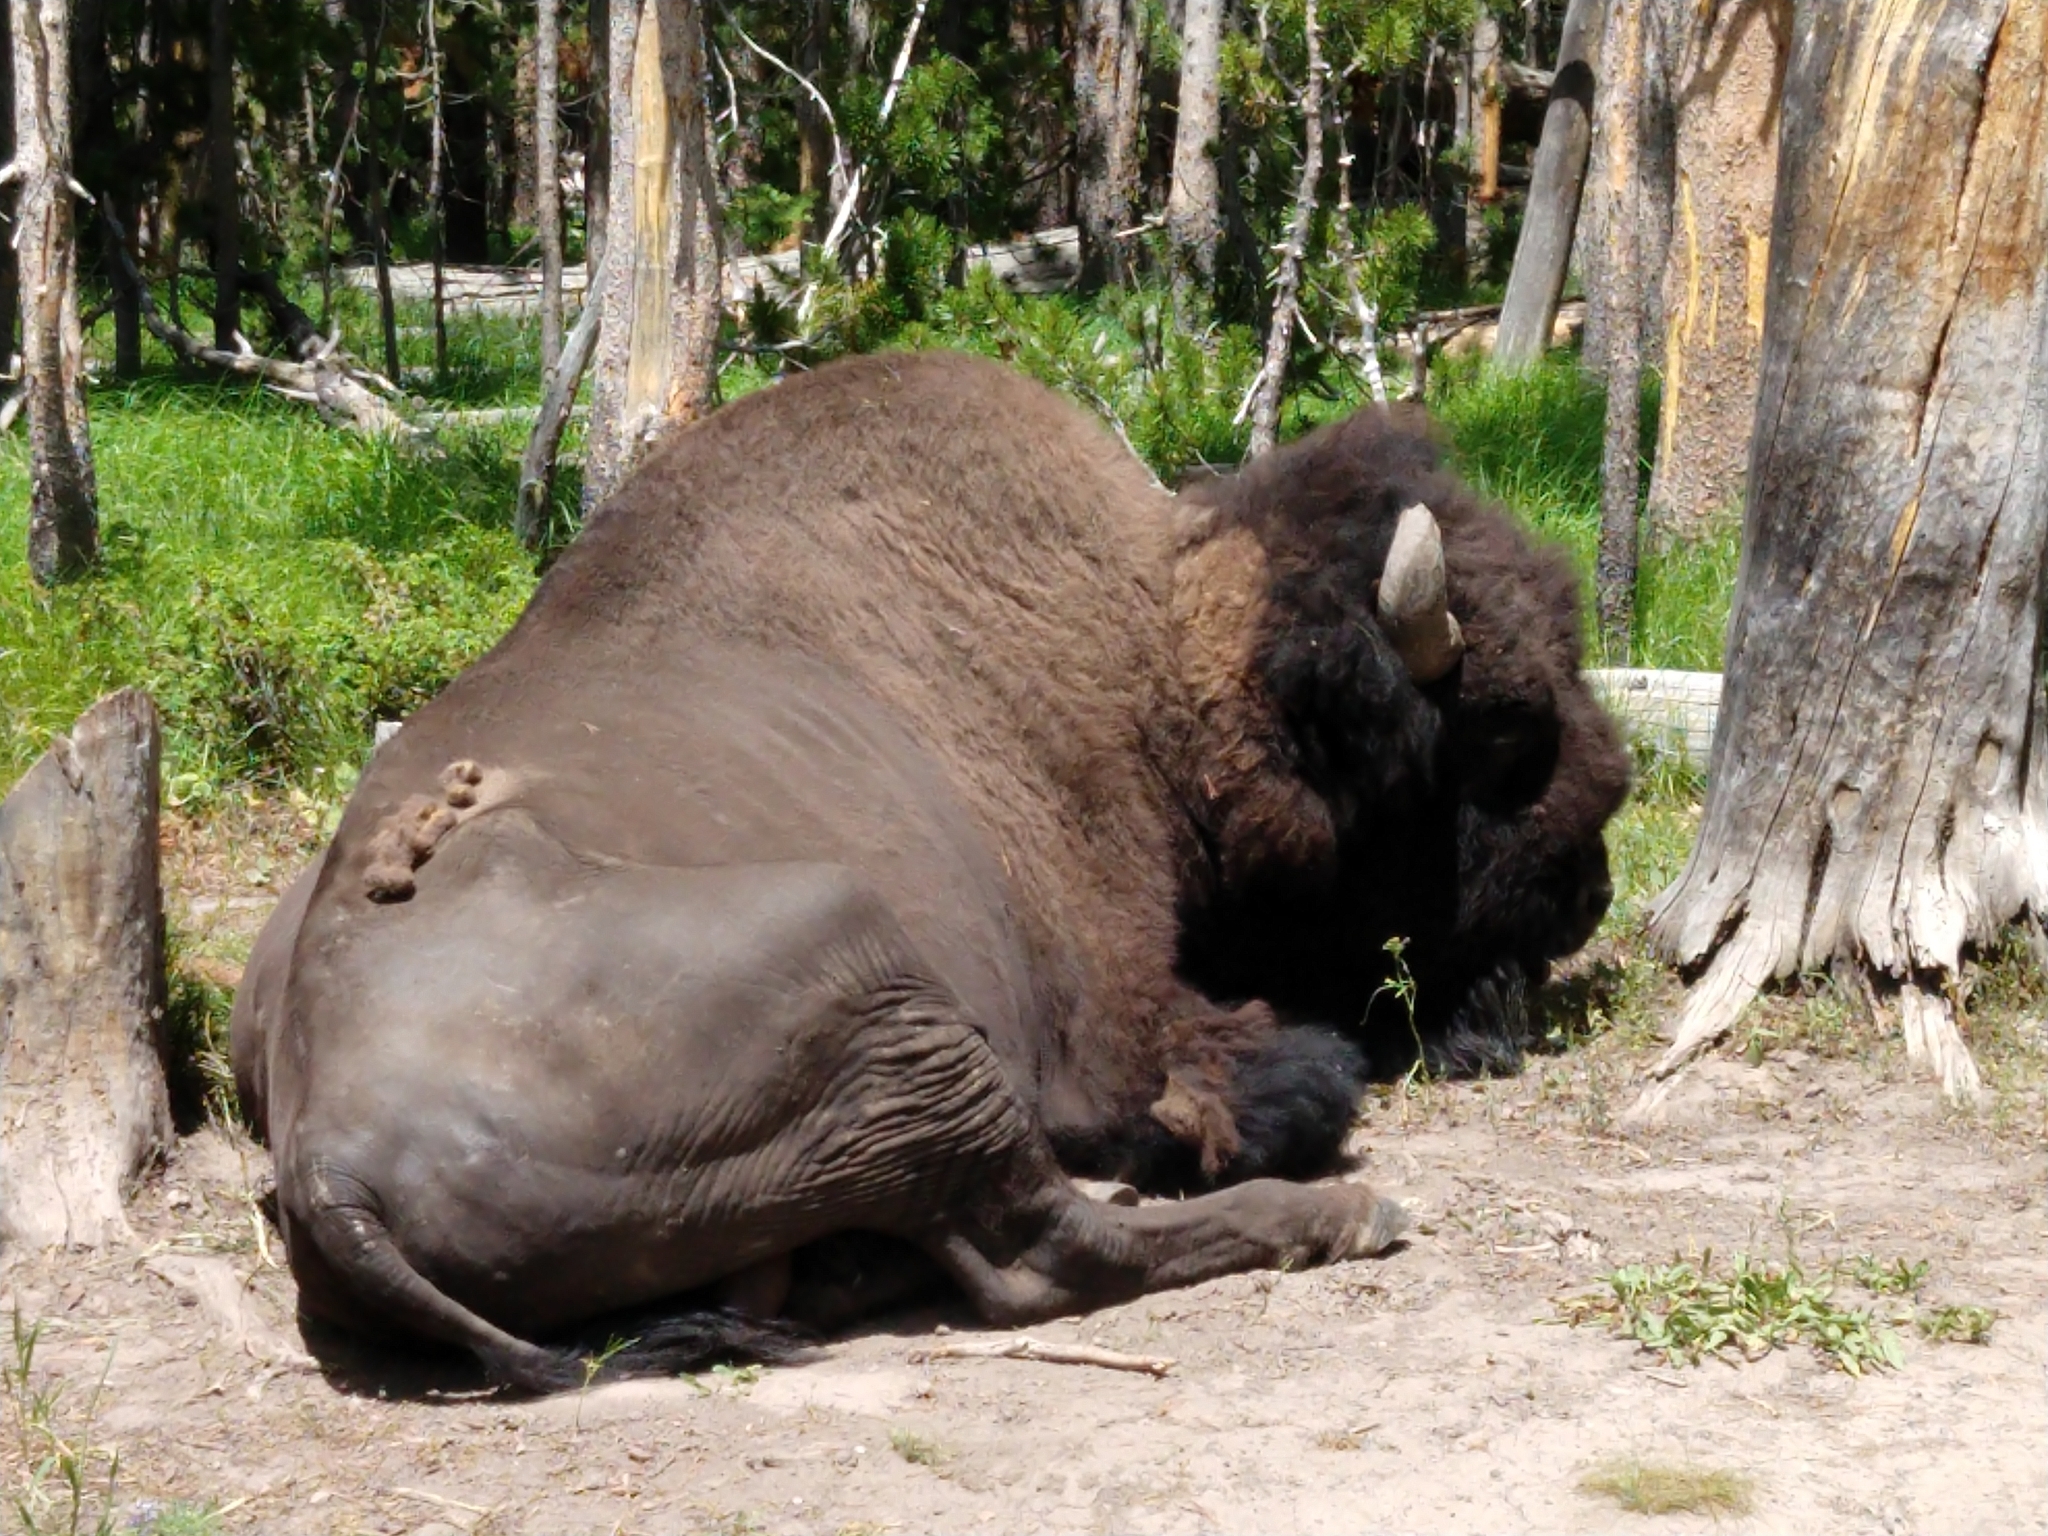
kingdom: Animalia
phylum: Chordata
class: Mammalia
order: Artiodactyla
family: Bovidae
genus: Bison
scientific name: Bison bison
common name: American bison
